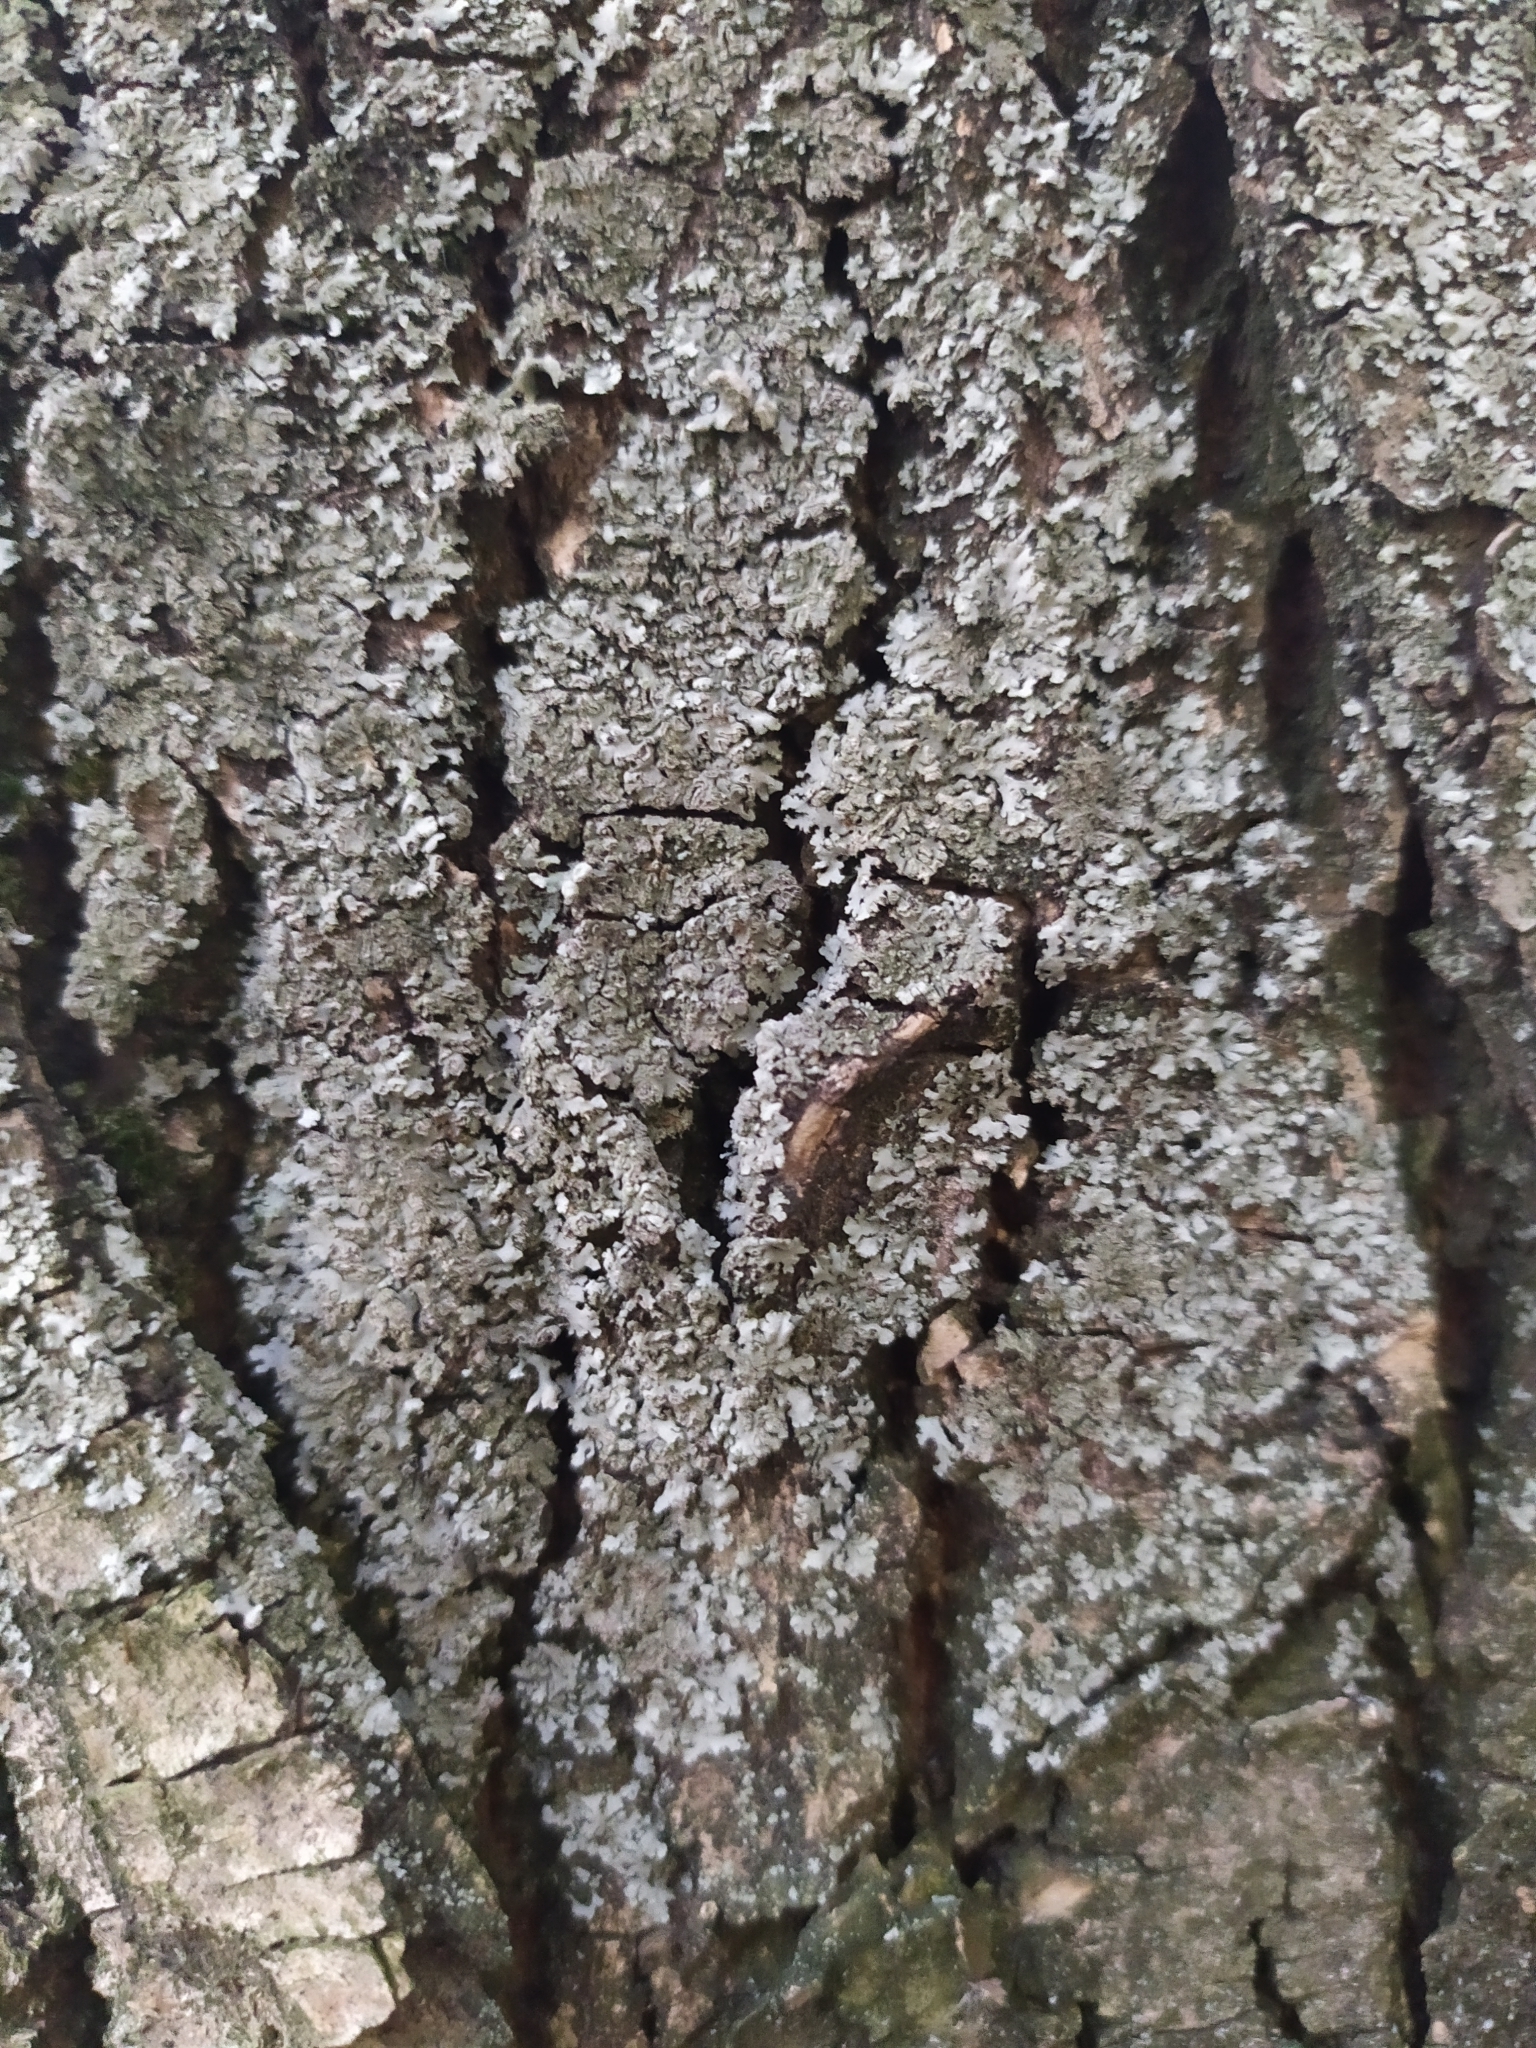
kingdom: Fungi
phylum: Ascomycota
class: Lecanoromycetes
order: Caliciales
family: Physciaceae
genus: Phaeophyscia
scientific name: Phaeophyscia orbicularis
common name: Mealy shadow lichen
